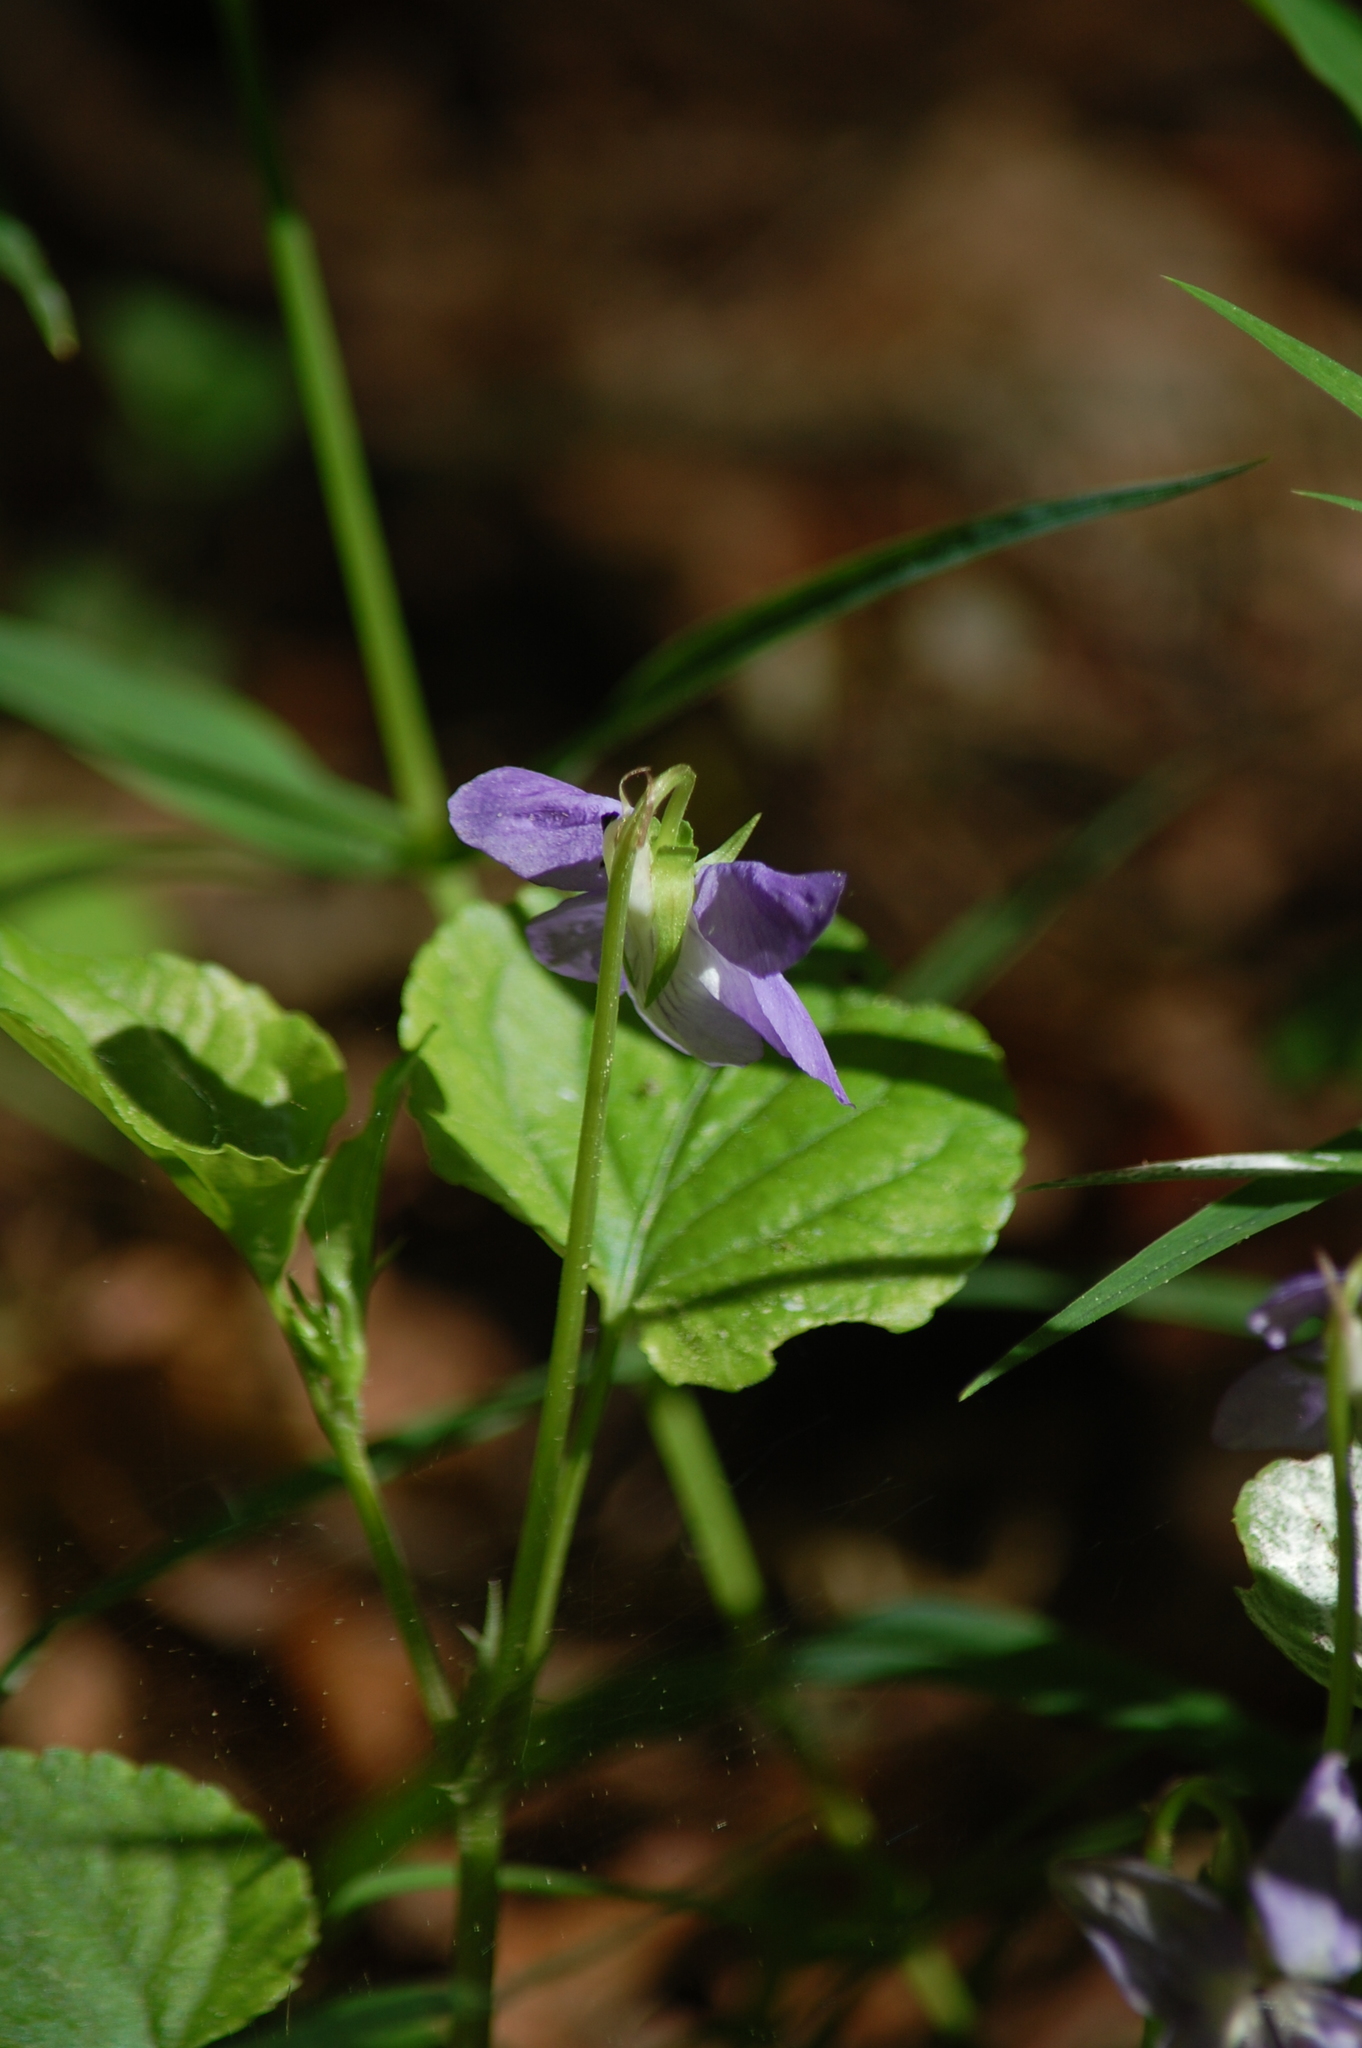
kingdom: Plantae
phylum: Tracheophyta
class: Magnoliopsida
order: Malpighiales
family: Violaceae
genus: Viola
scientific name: Viola riviniana
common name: Common dog-violet
